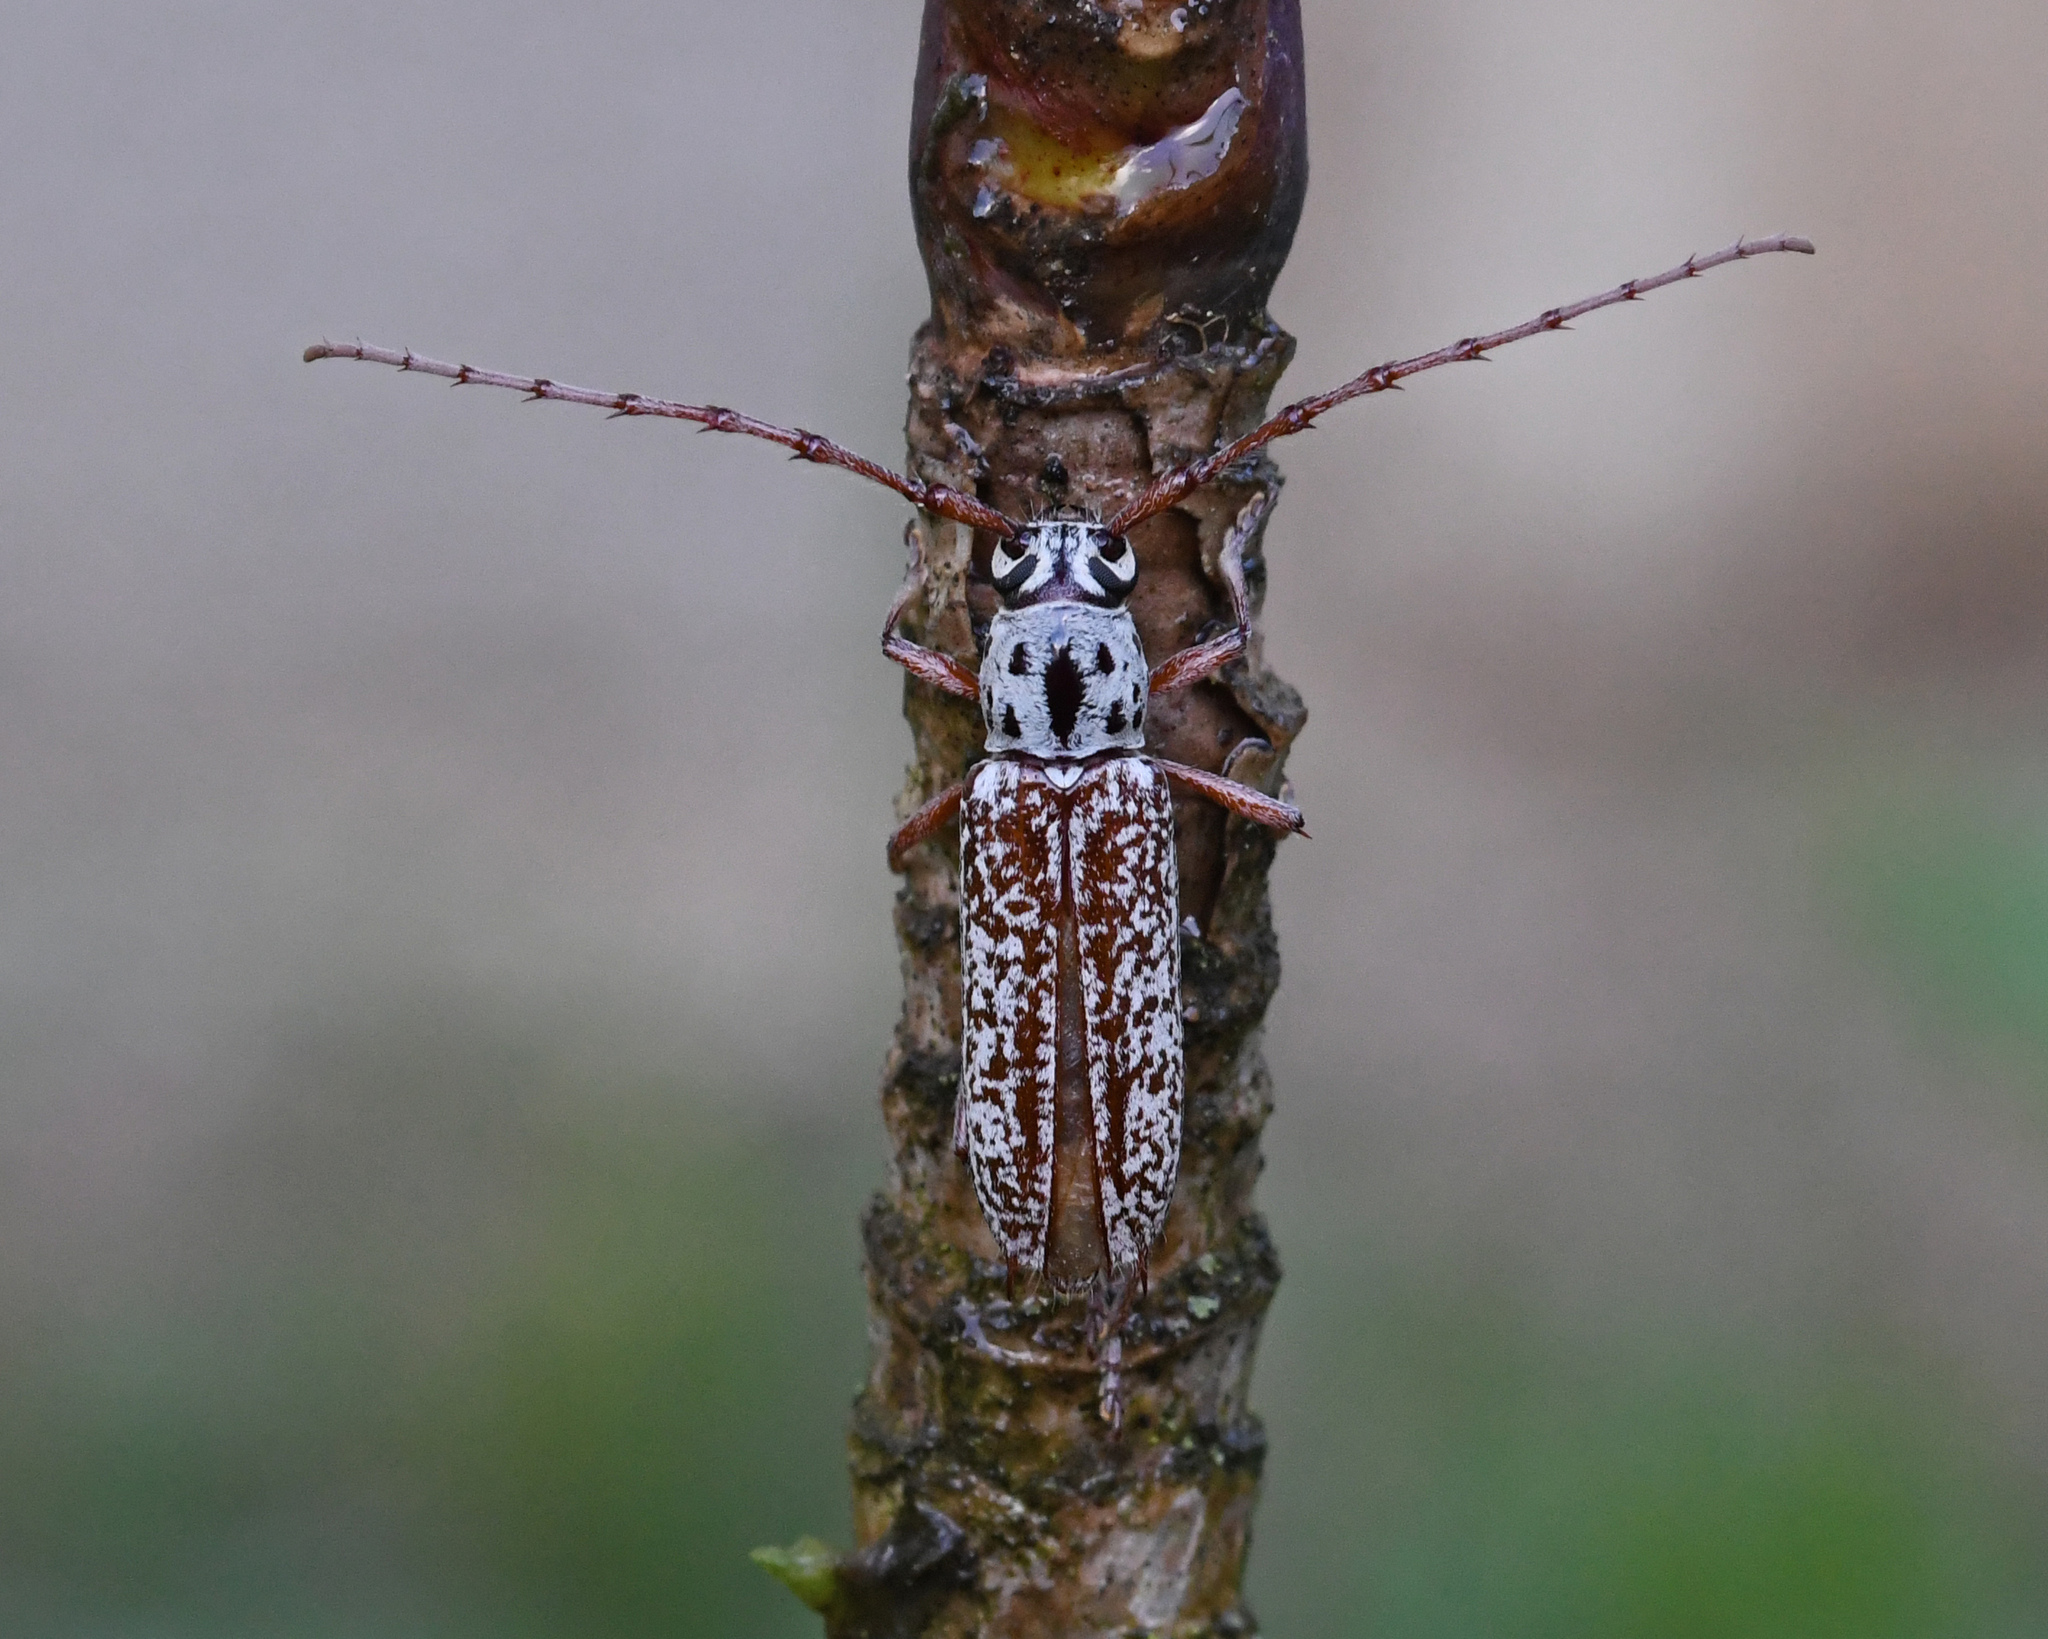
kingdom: Animalia
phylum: Arthropoda
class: Insecta
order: Coleoptera
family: Cerambycidae
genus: Elaphidion
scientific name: Elaphidion splendidum
